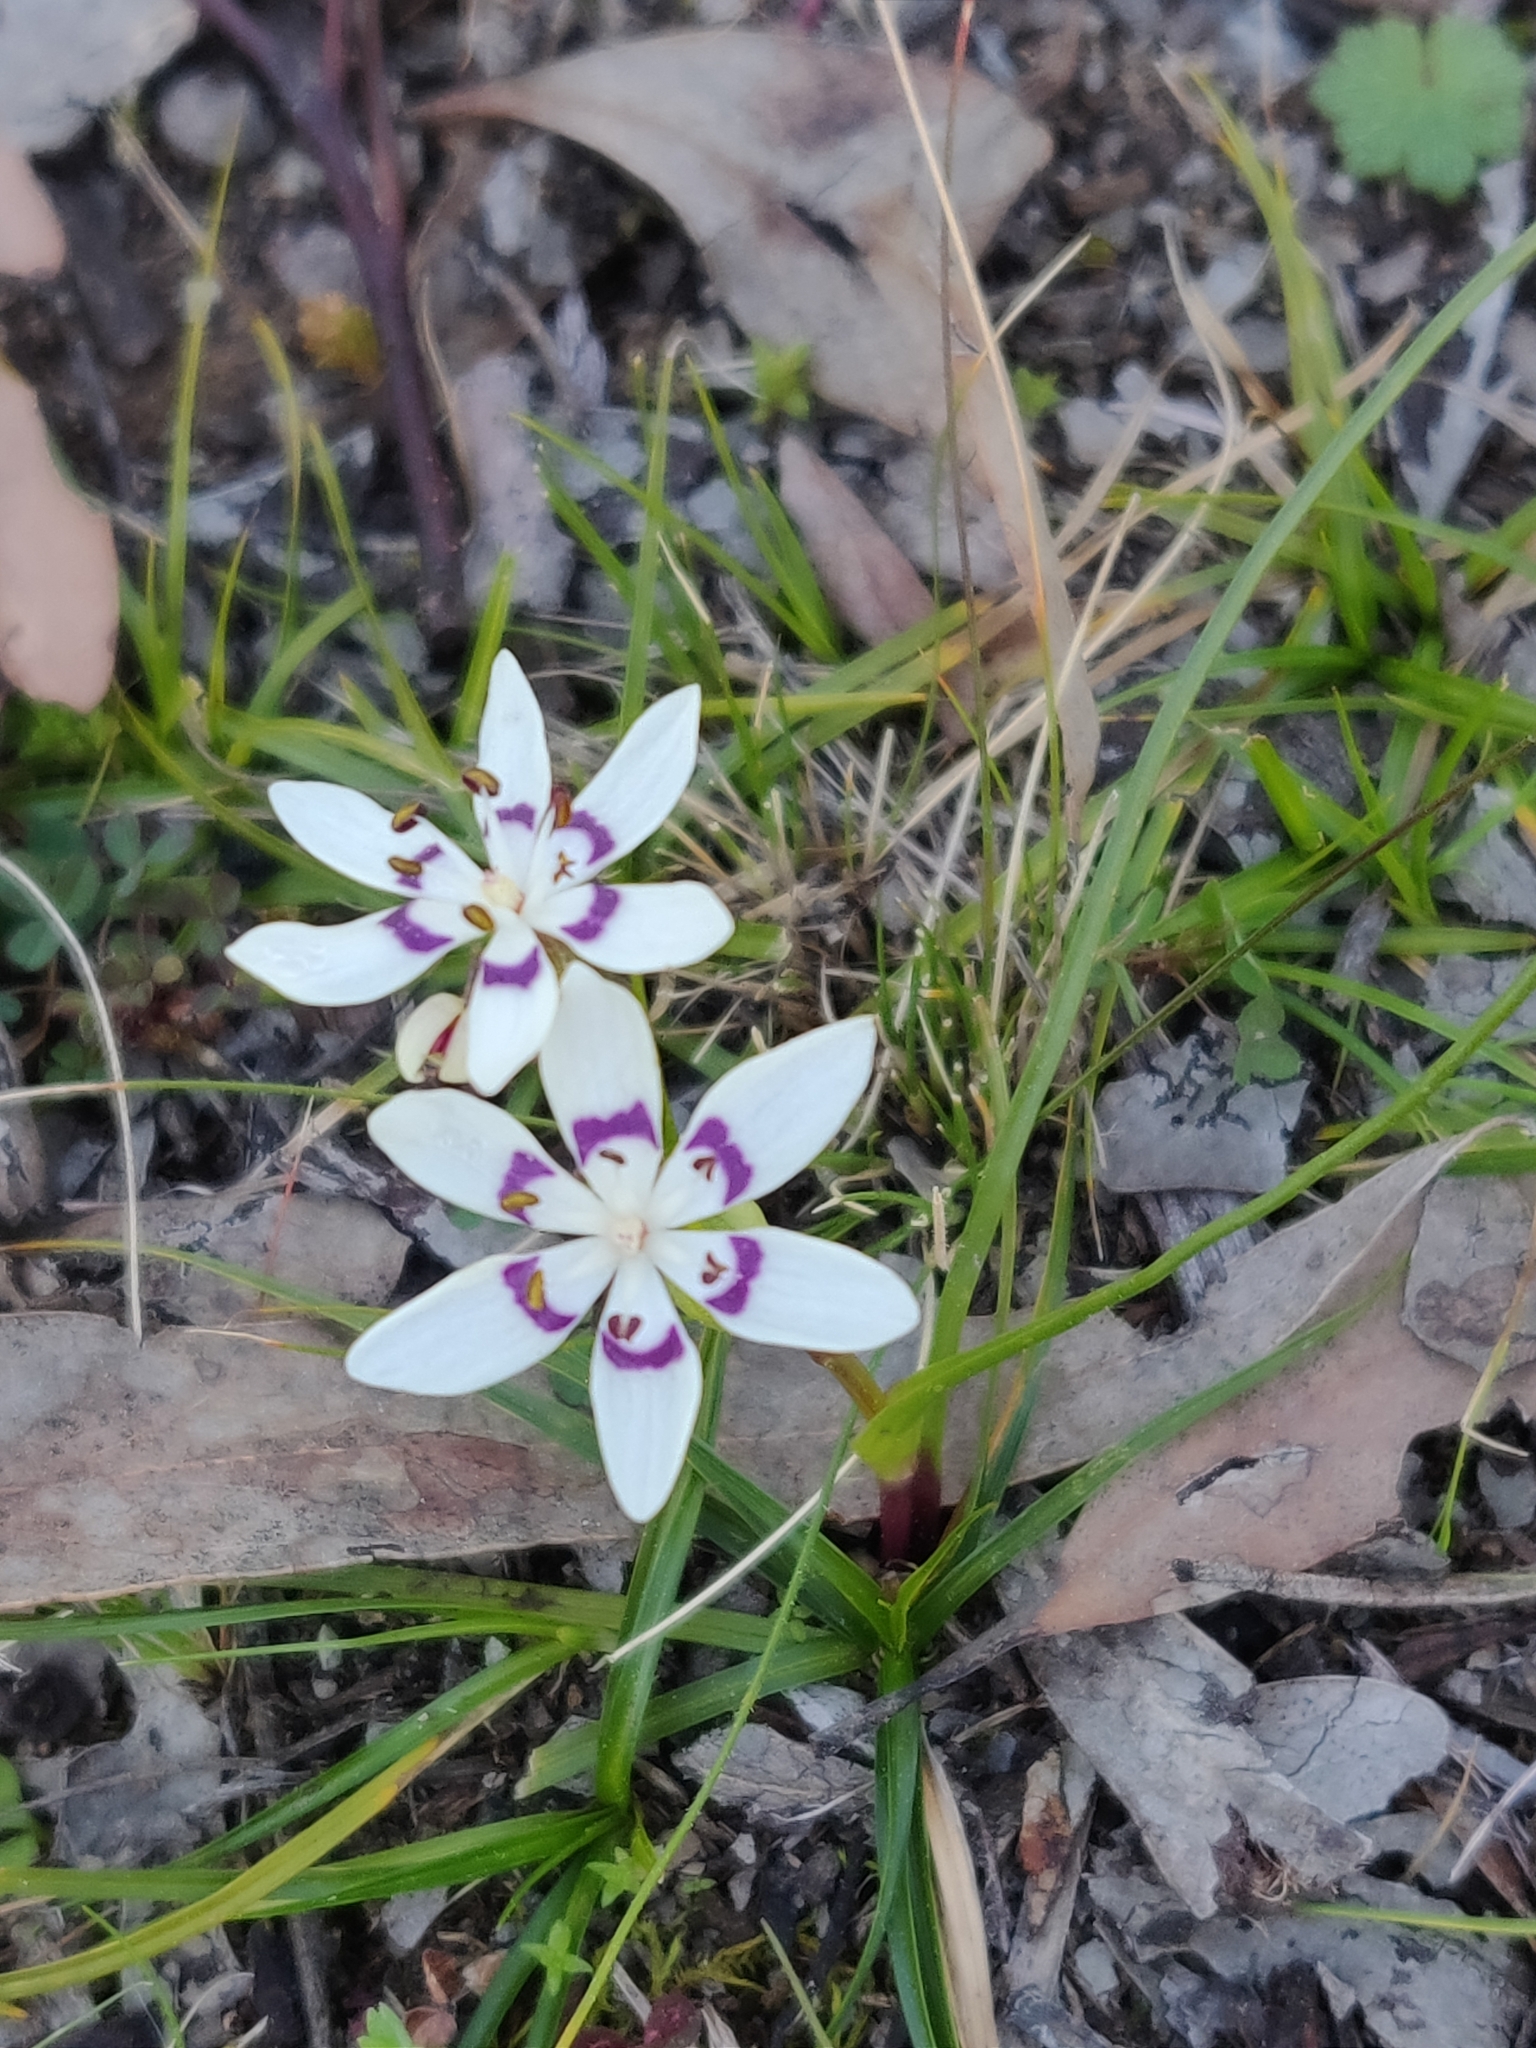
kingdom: Plantae
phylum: Tracheophyta
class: Liliopsida
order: Liliales
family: Colchicaceae
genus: Wurmbea
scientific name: Wurmbea dioica
